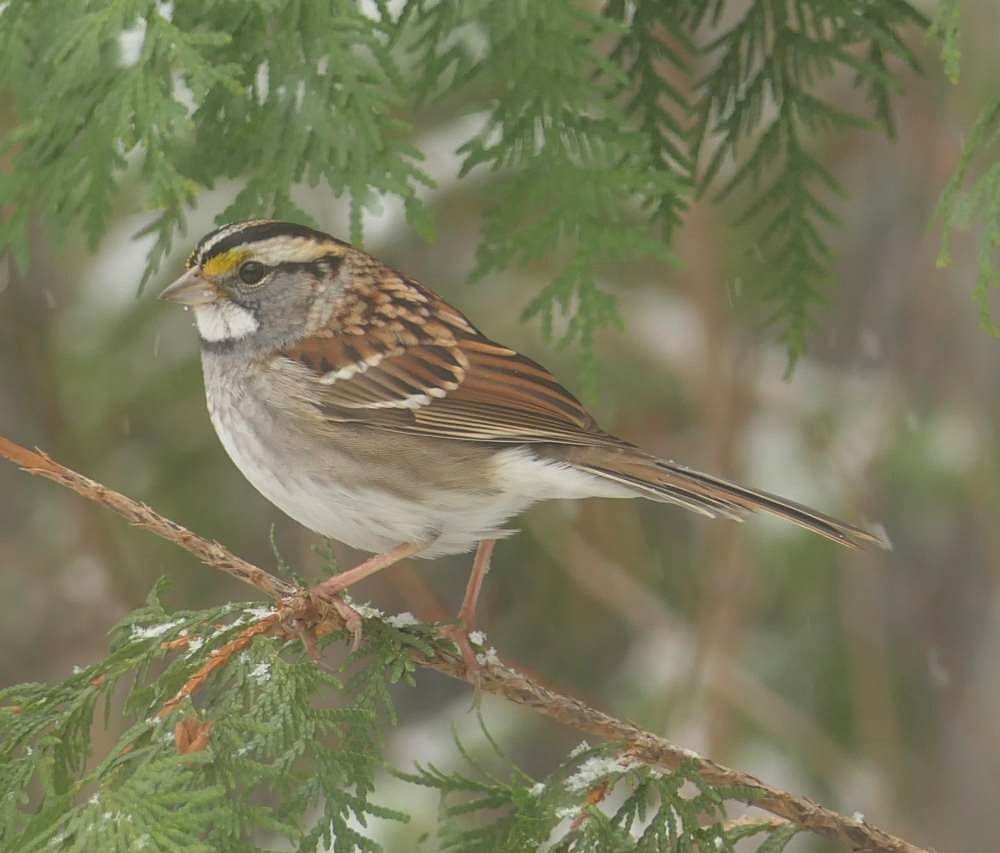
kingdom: Animalia
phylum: Chordata
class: Aves
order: Passeriformes
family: Passerellidae
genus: Zonotrichia
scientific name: Zonotrichia albicollis
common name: White-throated sparrow
